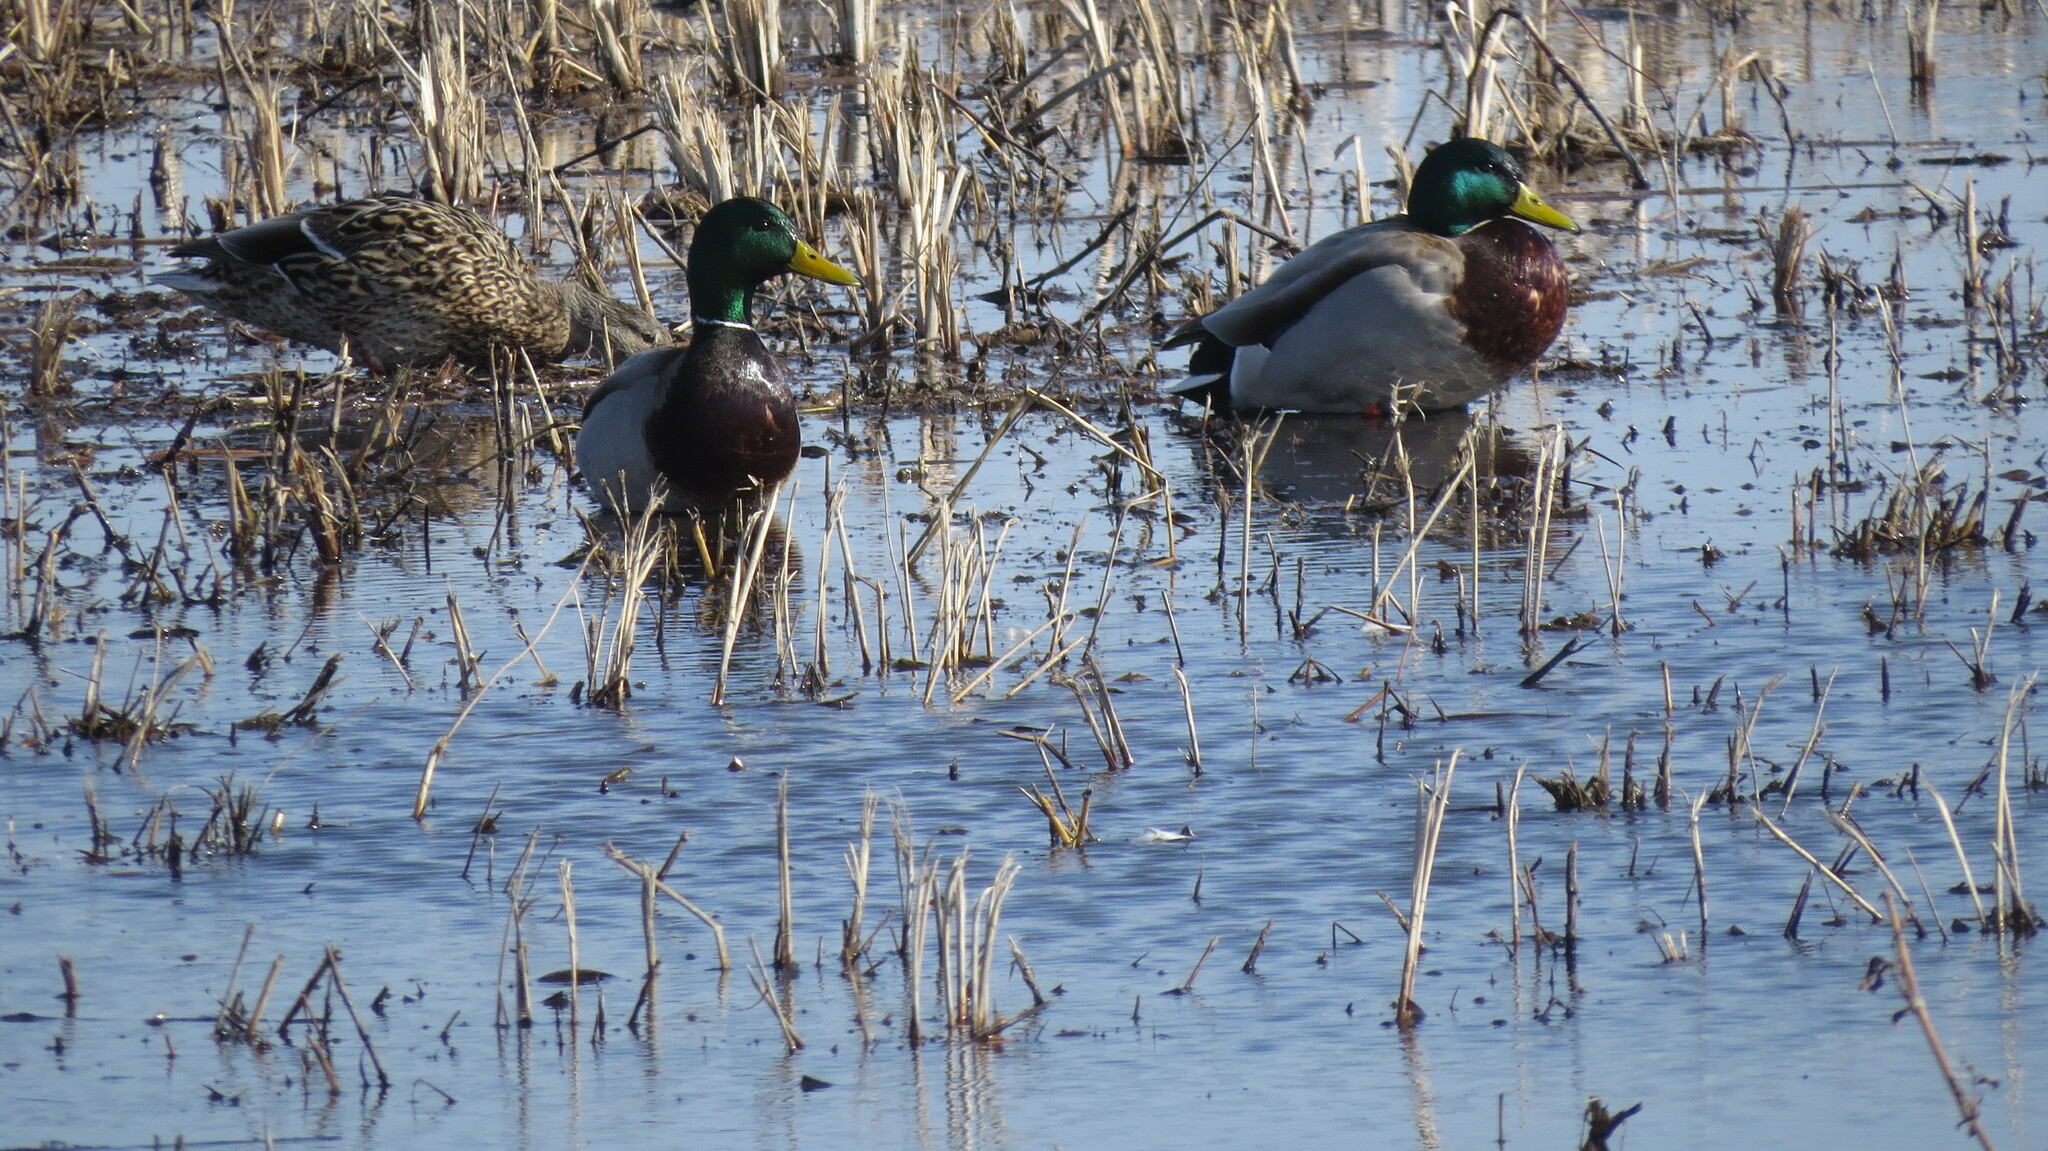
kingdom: Animalia
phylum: Chordata
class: Aves
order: Anseriformes
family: Anatidae
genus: Anas
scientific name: Anas platyrhynchos
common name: Mallard
